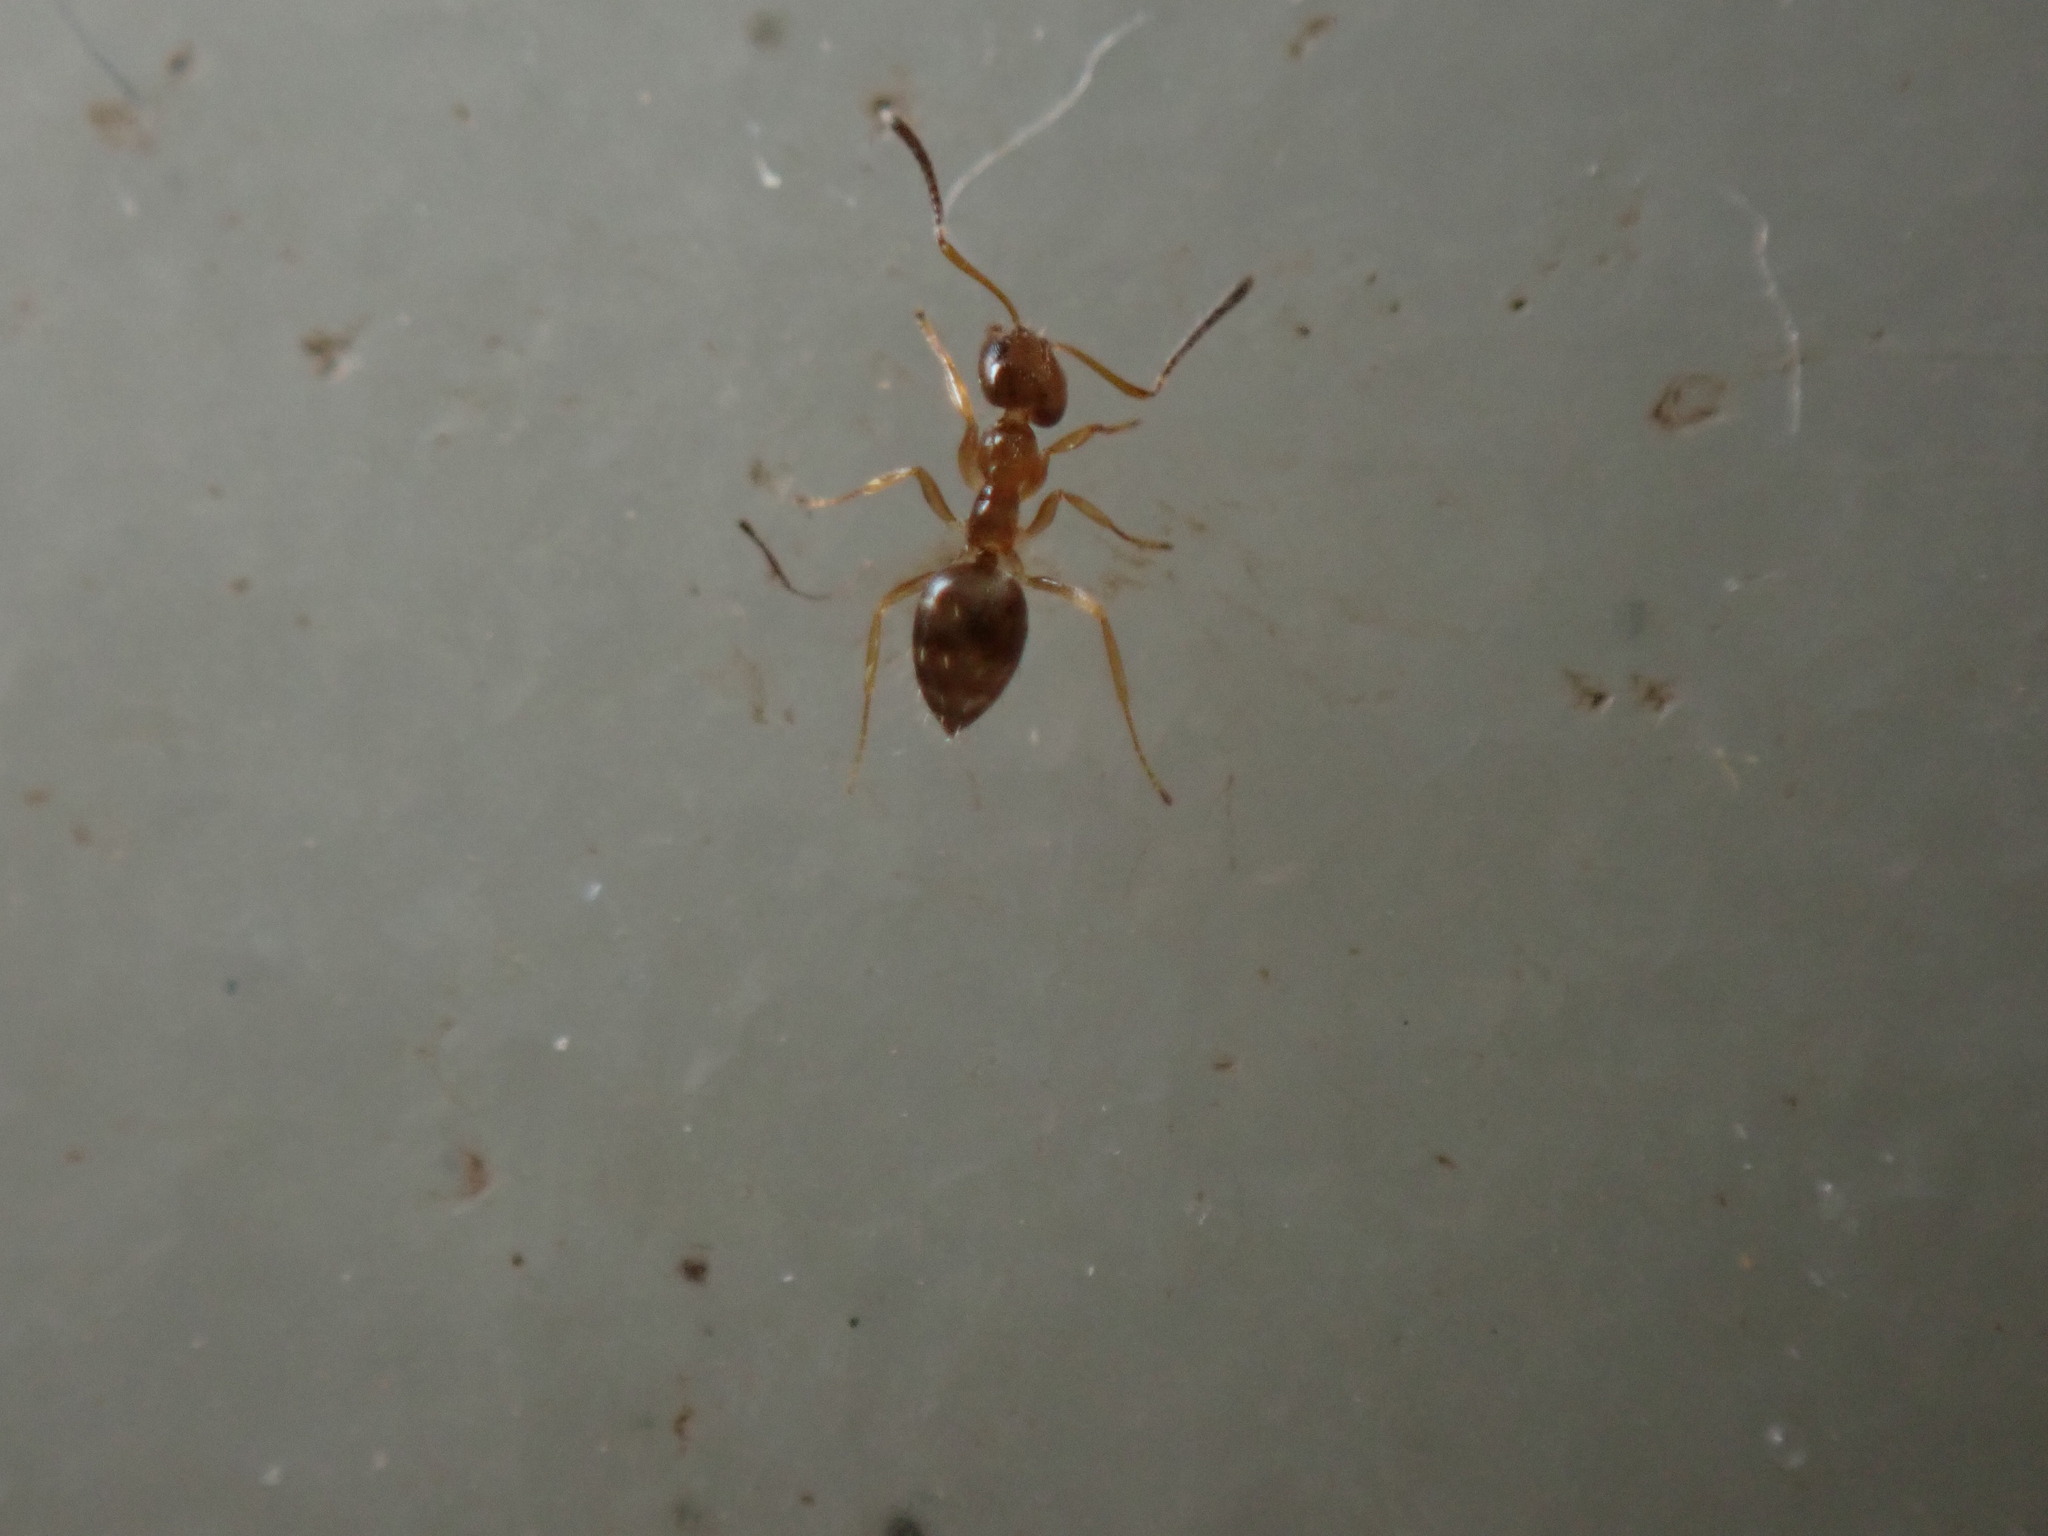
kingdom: Animalia
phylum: Arthropoda
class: Insecta
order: Hymenoptera
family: Formicidae
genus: Paratrechina
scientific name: Paratrechina jaegerskioeldi
